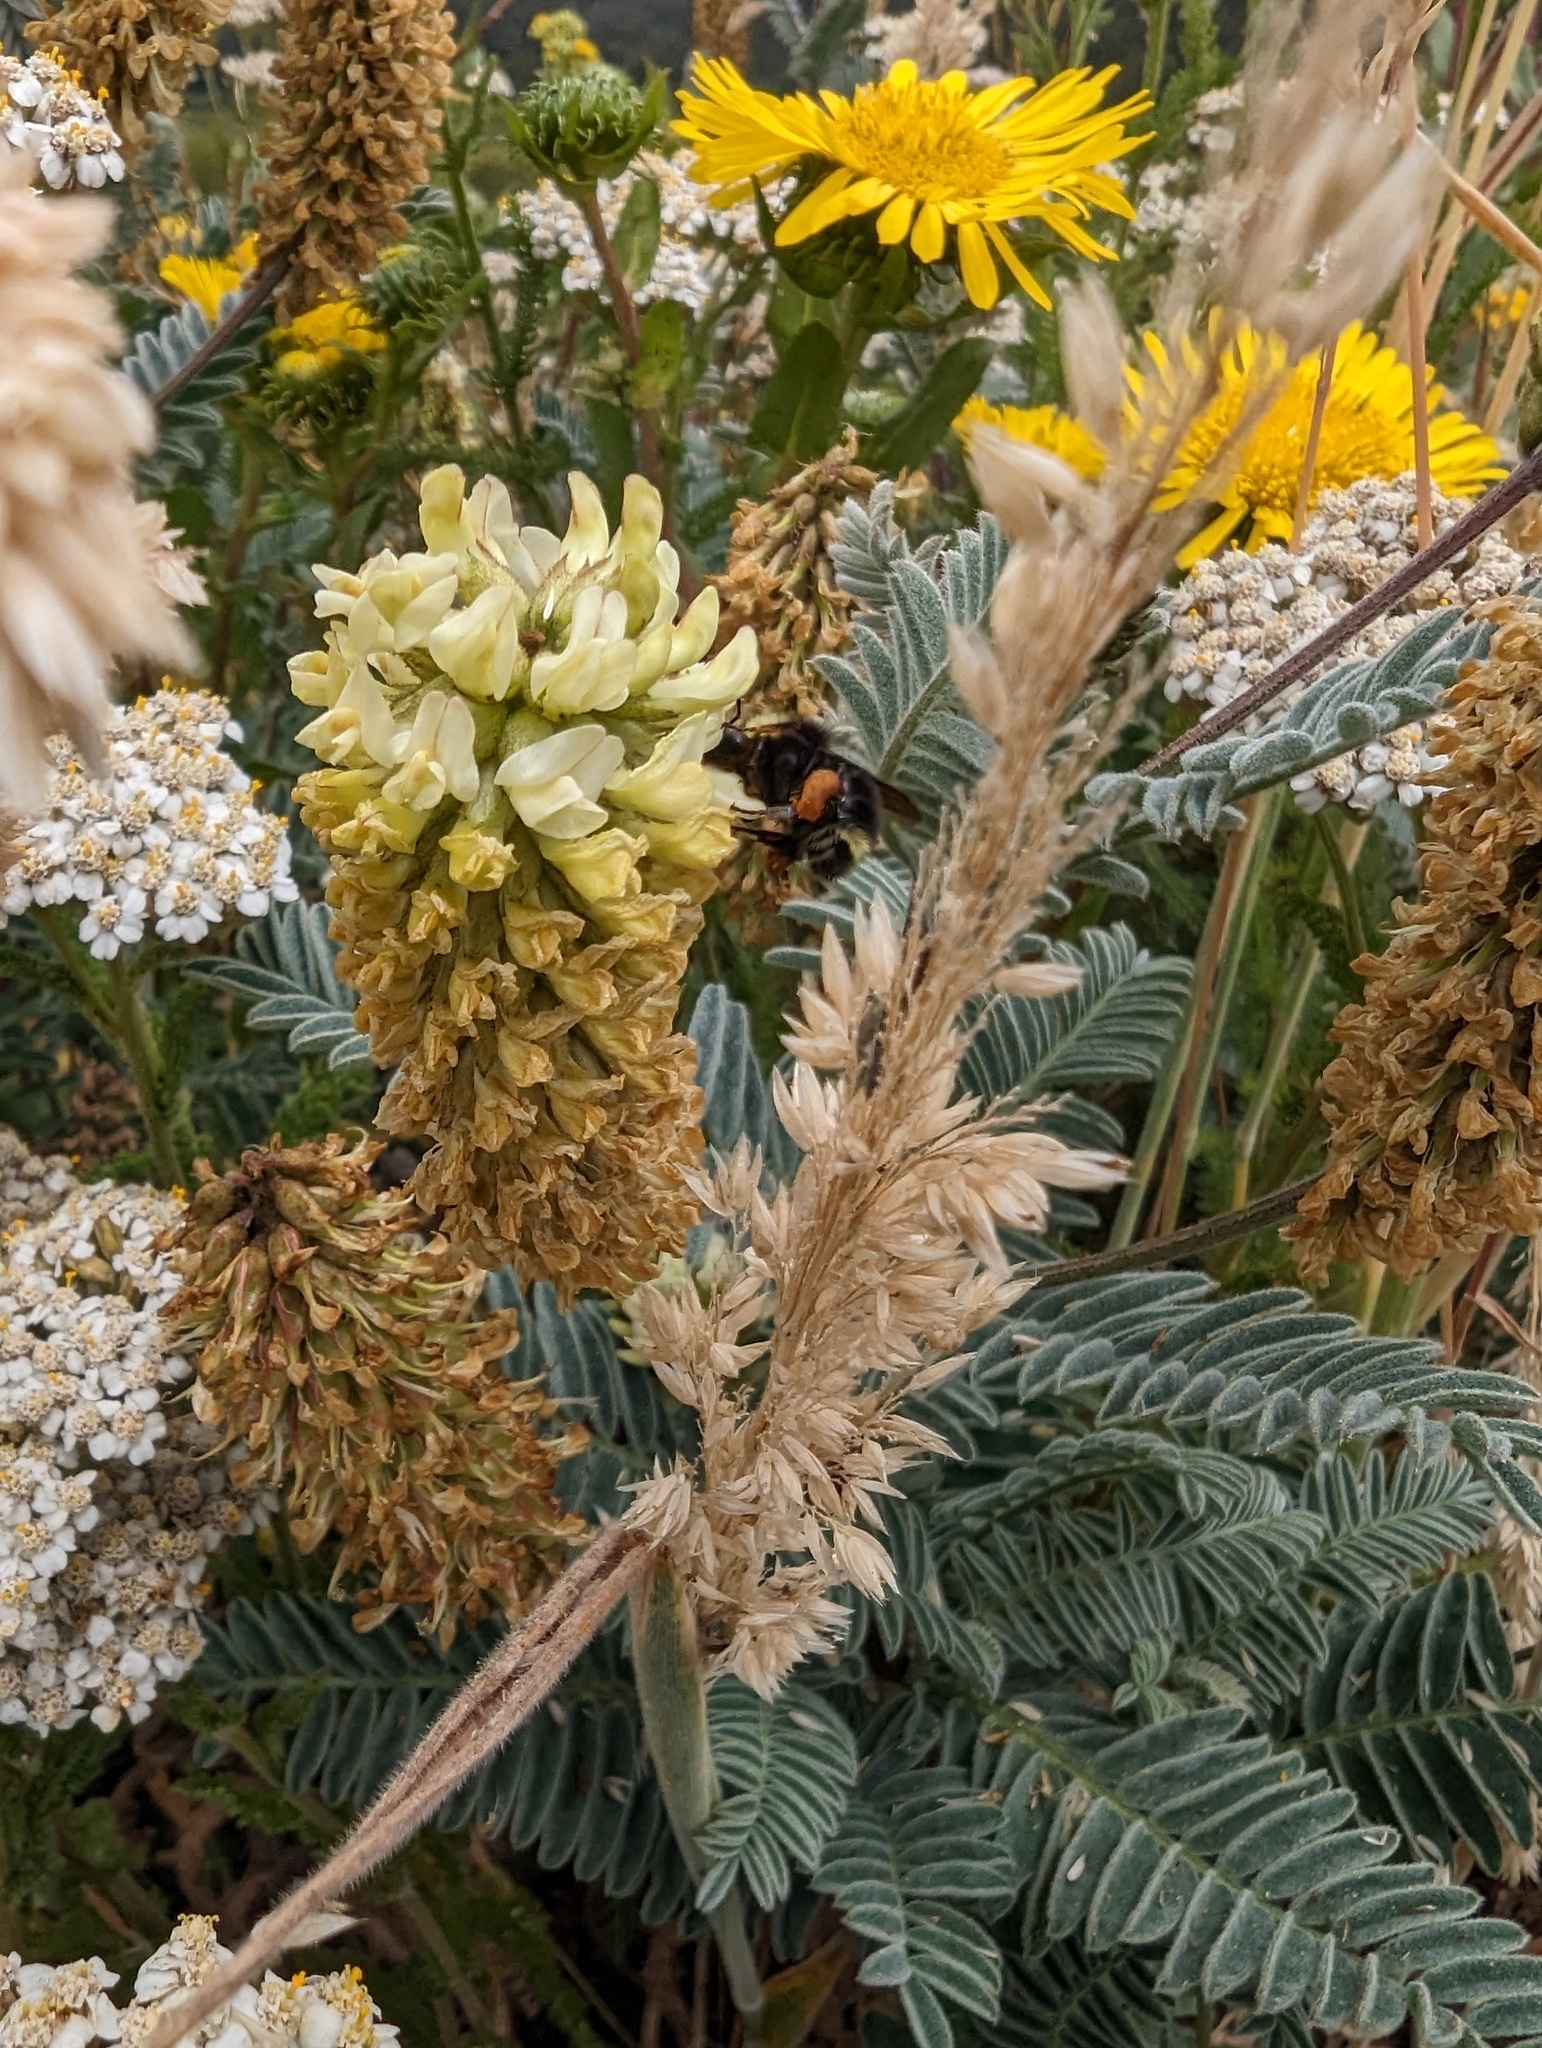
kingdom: Plantae
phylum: Tracheophyta
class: Magnoliopsida
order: Fabales
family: Fabaceae
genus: Astragalus
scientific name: Astragalus pycnostachyus
